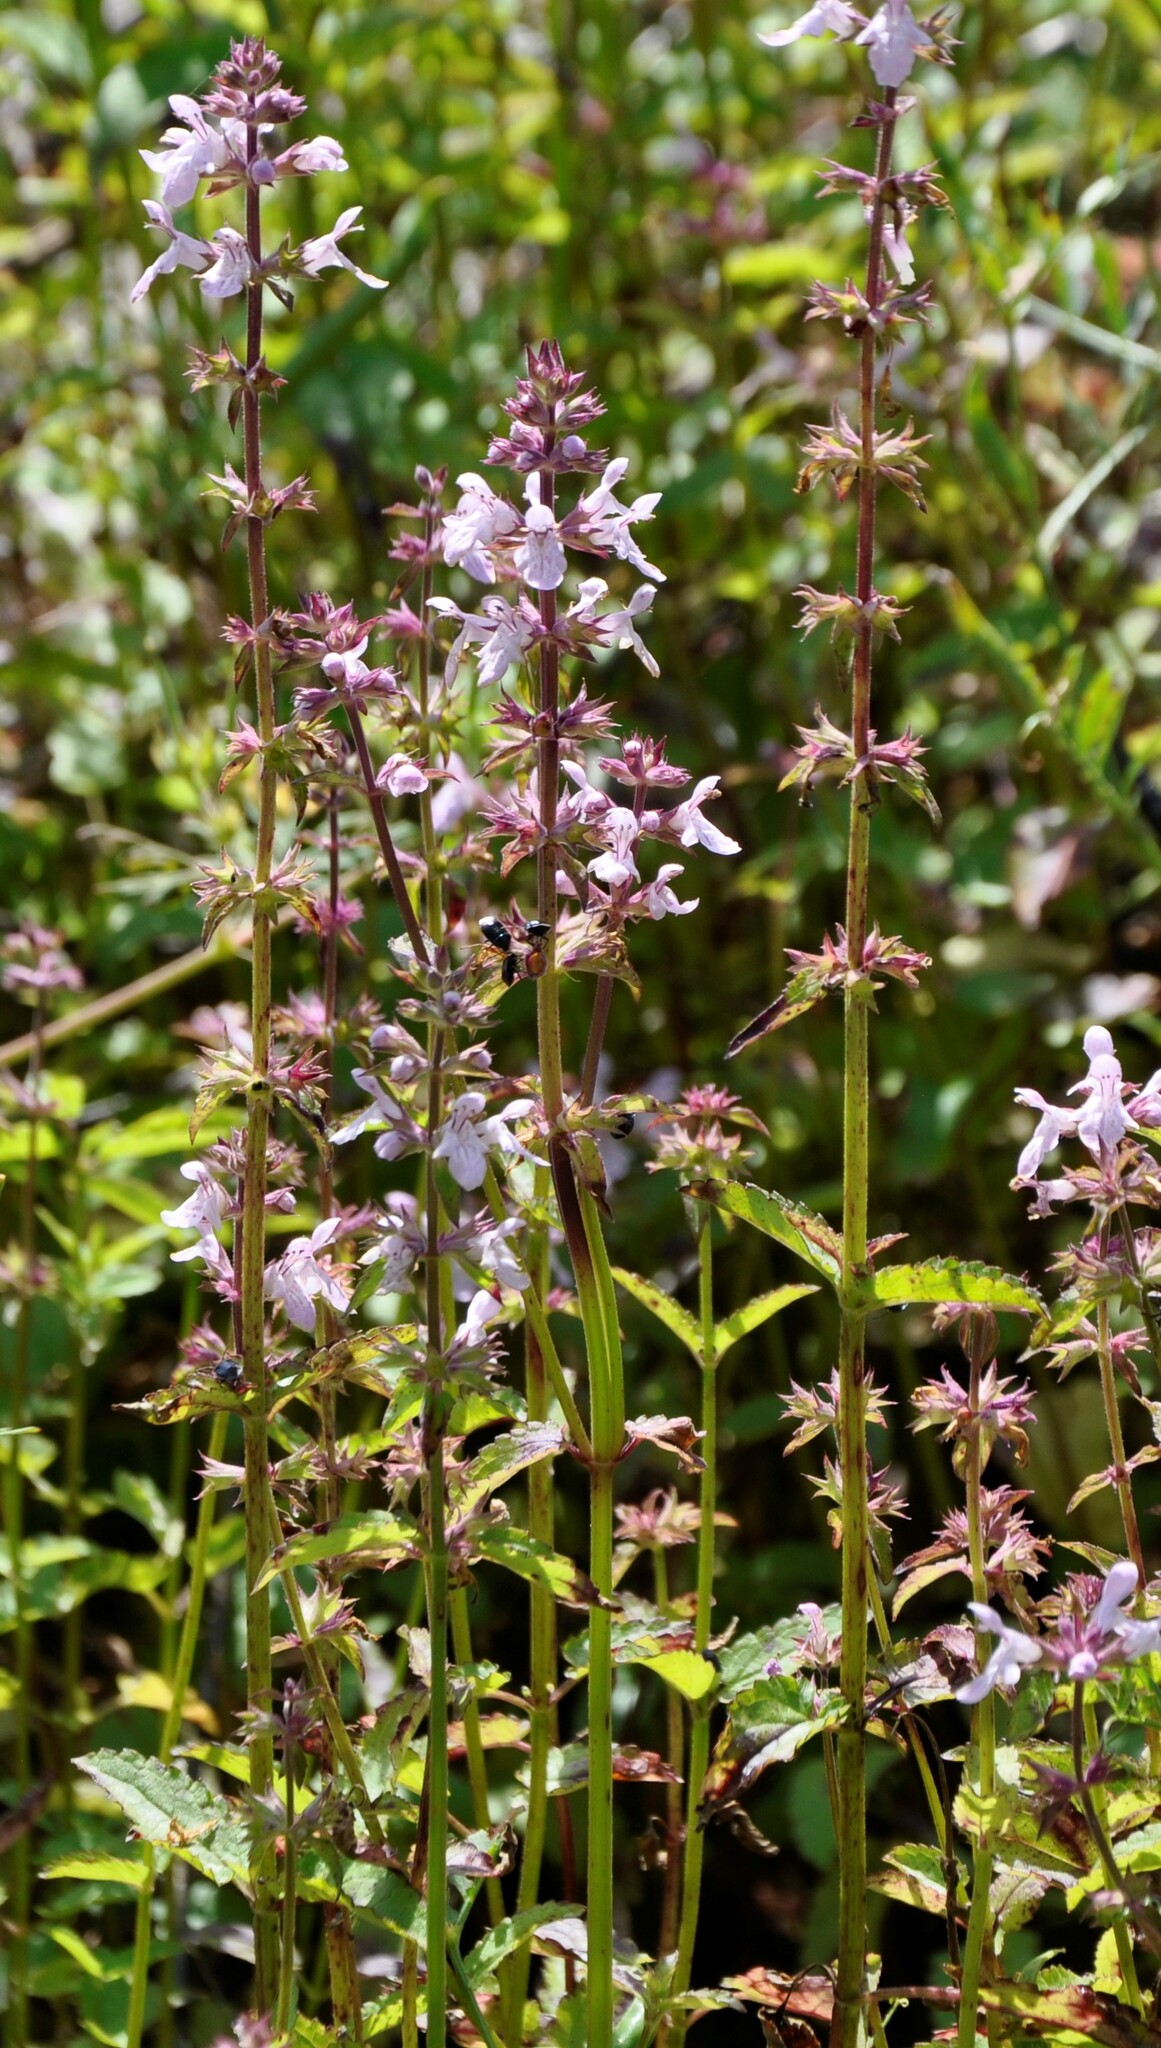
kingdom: Plantae
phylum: Tracheophyta
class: Magnoliopsida
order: Lamiales
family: Lamiaceae
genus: Stachys
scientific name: Stachys floridana
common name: Florida betony
